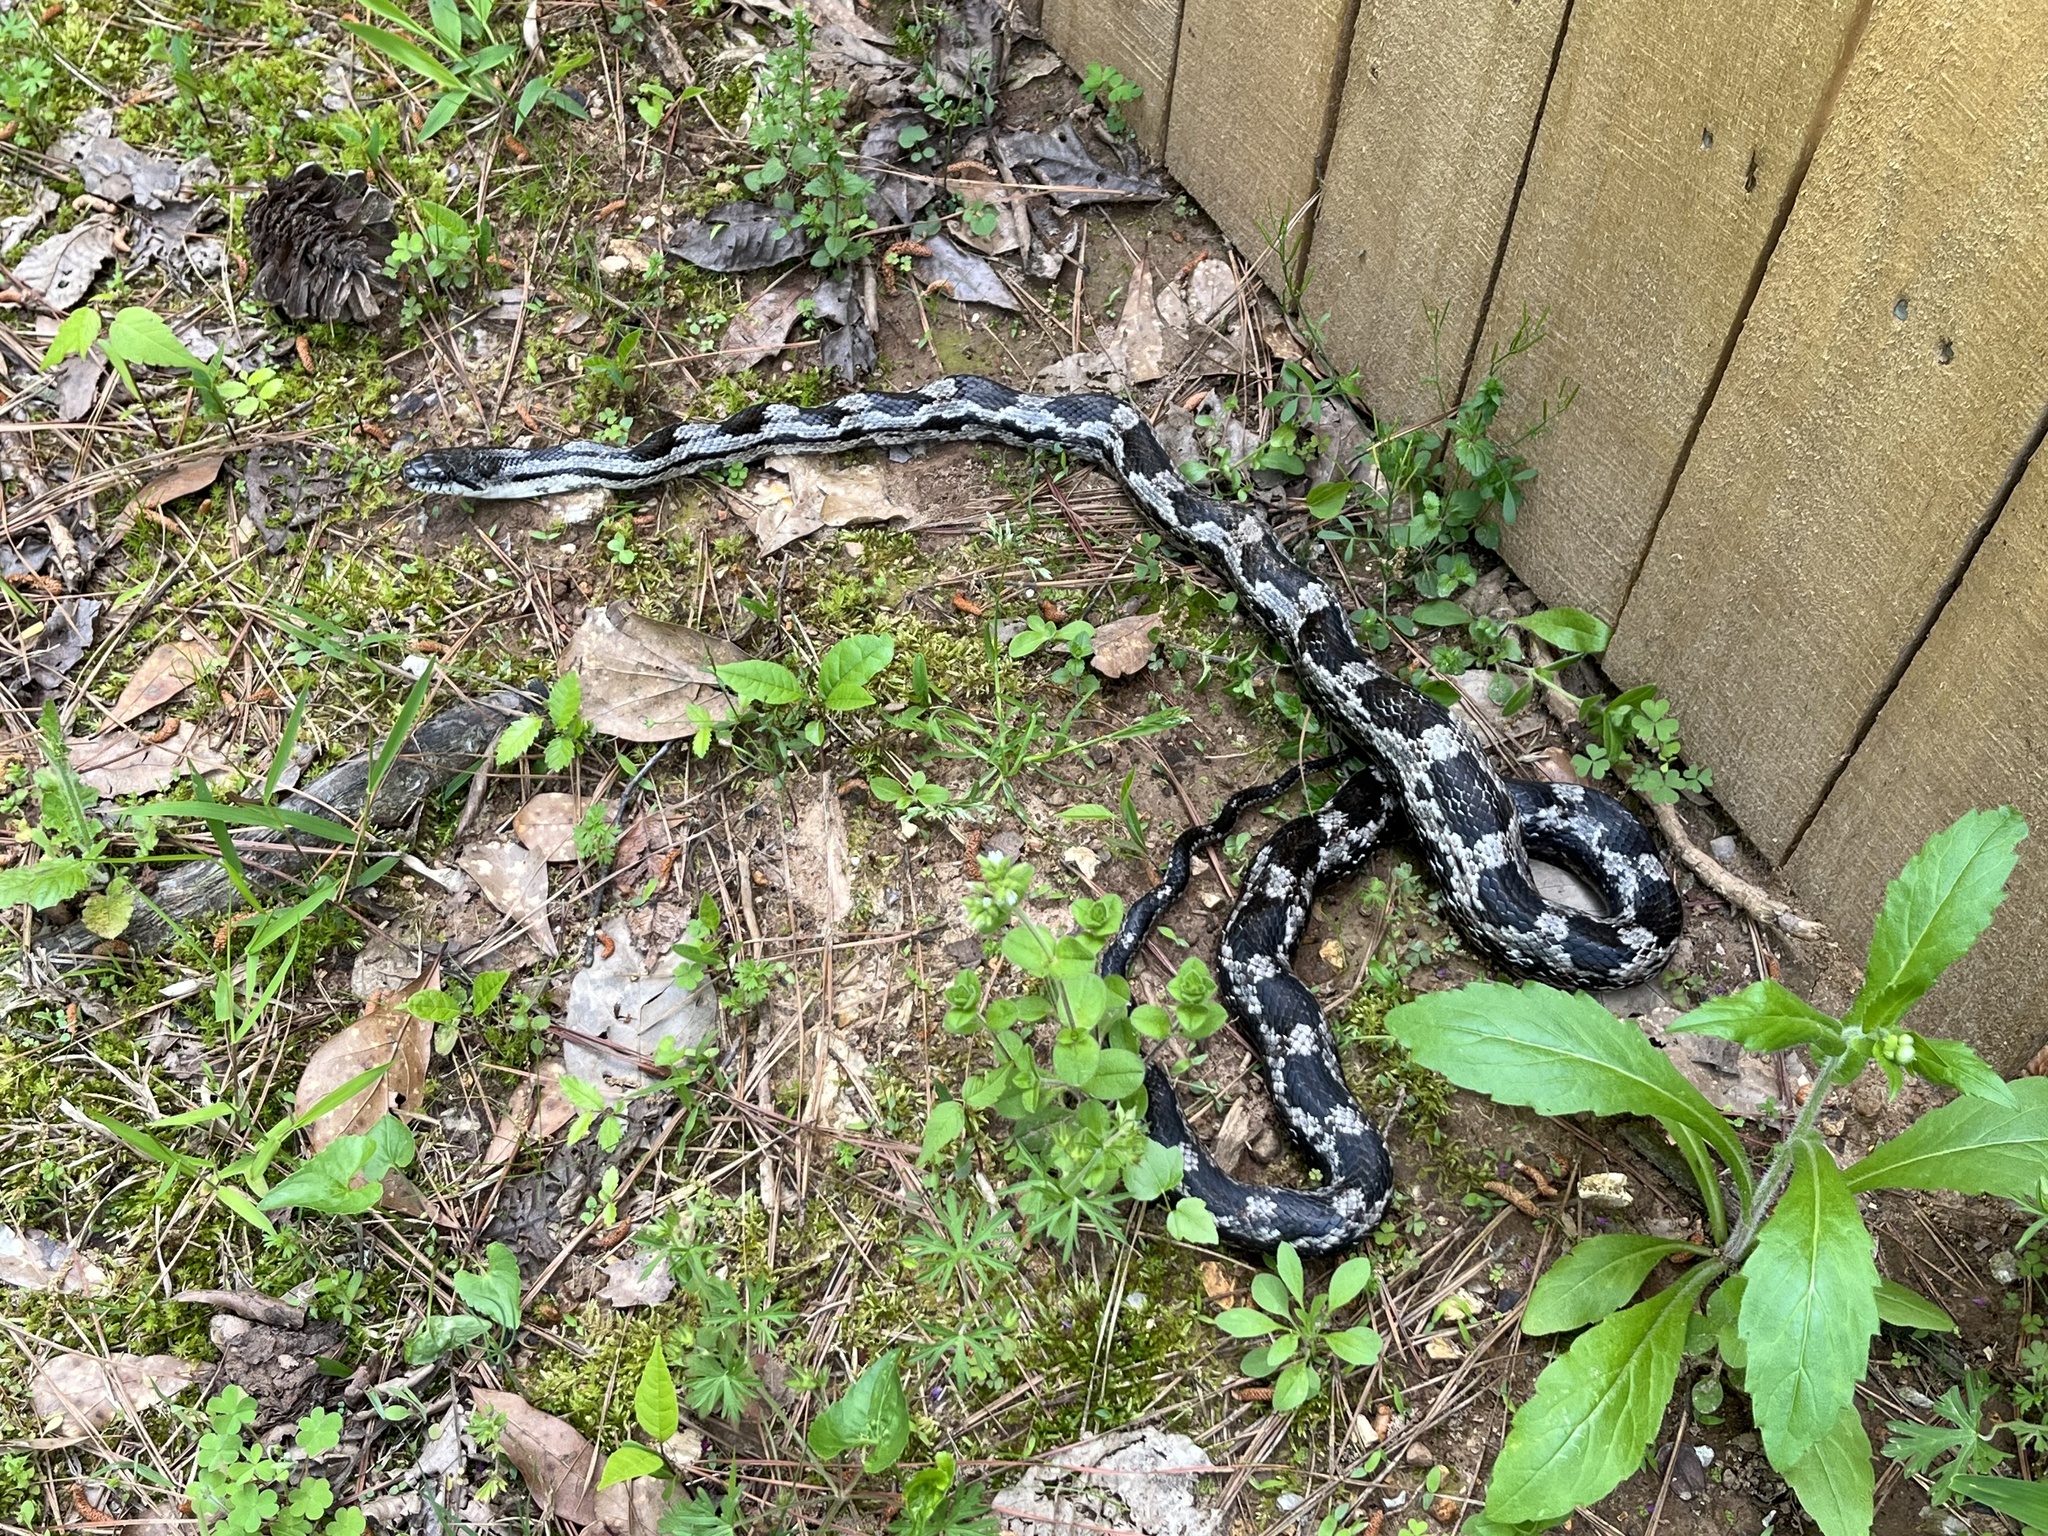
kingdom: Animalia
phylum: Chordata
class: Squamata
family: Colubridae
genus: Pantherophis
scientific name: Pantherophis spiloides
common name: Gray rat snake
